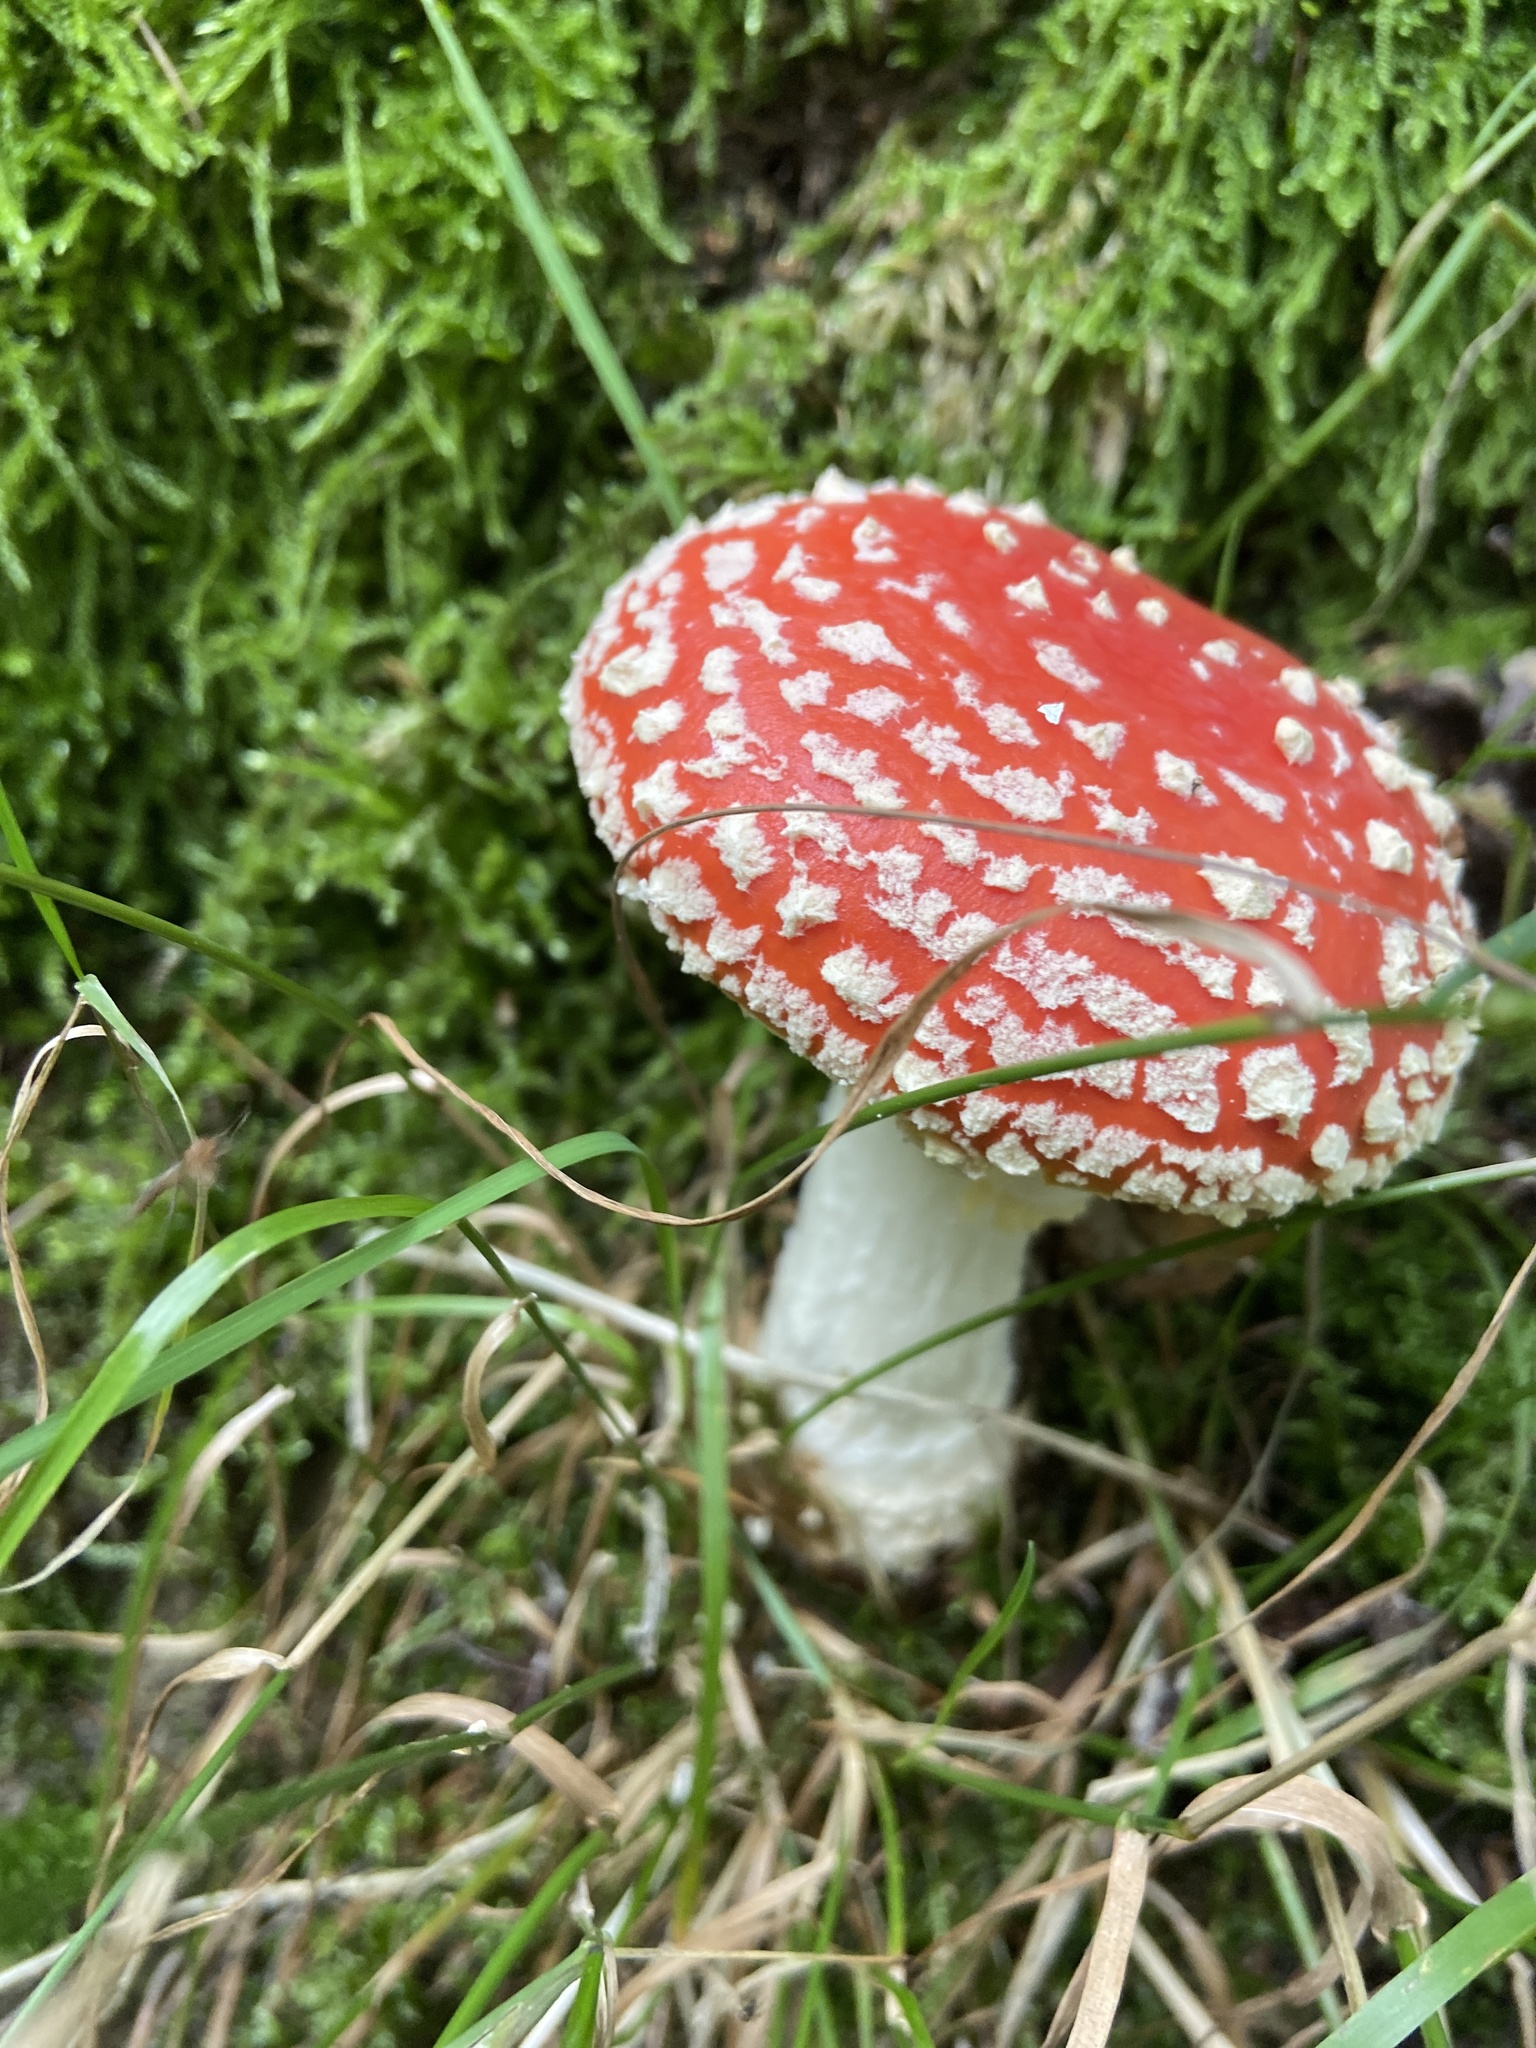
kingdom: Fungi
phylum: Basidiomycota
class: Agaricomycetes
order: Agaricales
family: Amanitaceae
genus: Amanita
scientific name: Amanita muscaria
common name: Fly agaric
